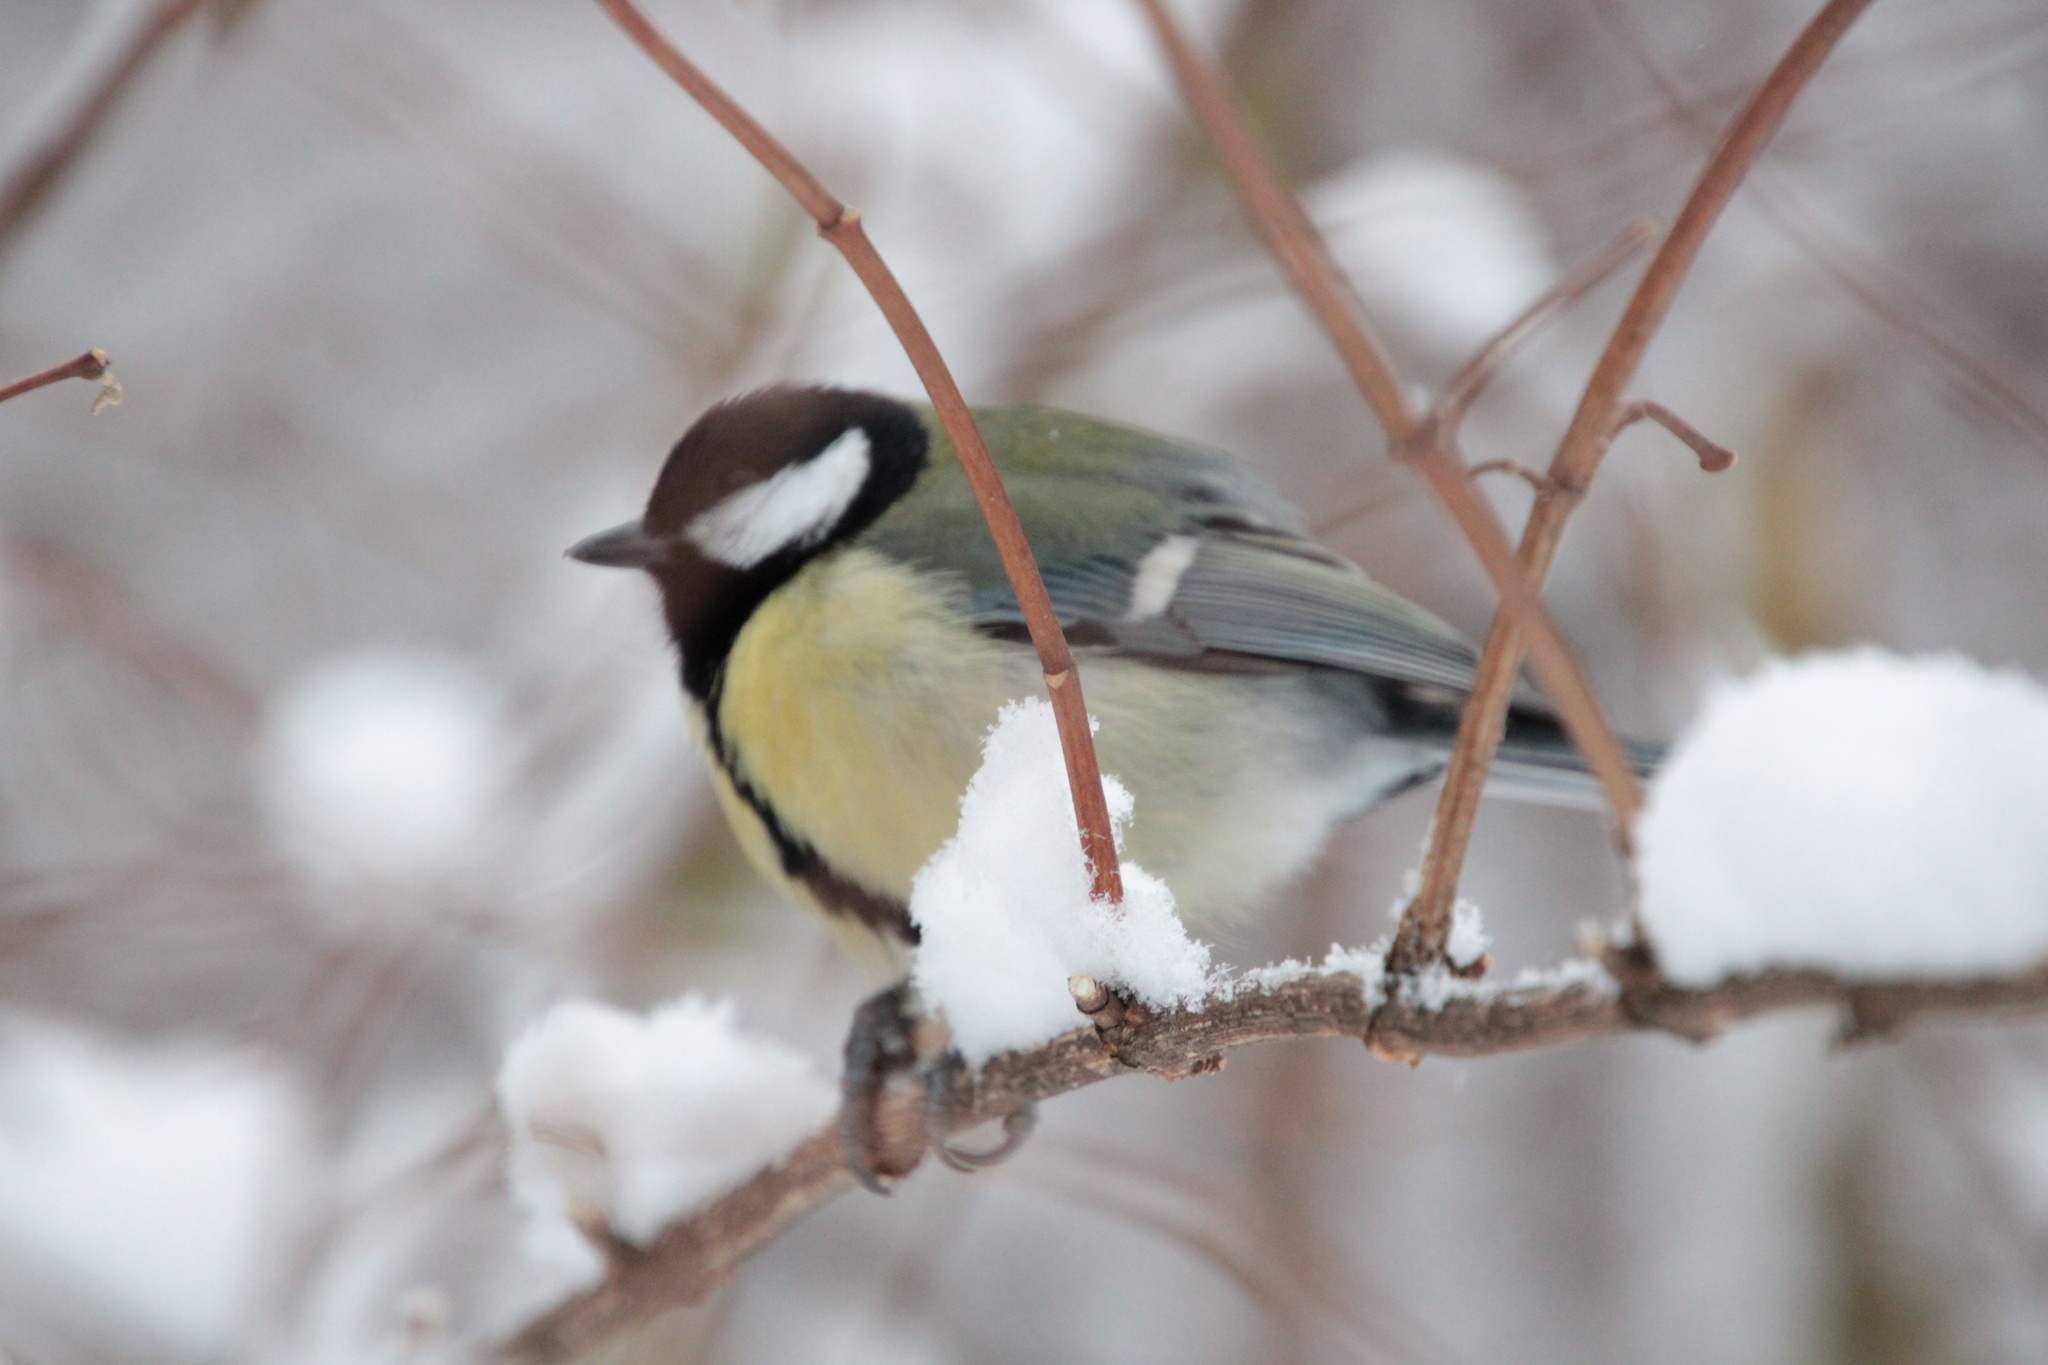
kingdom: Animalia
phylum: Chordata
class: Aves
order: Passeriformes
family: Paridae
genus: Parus
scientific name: Parus major
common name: Great tit
